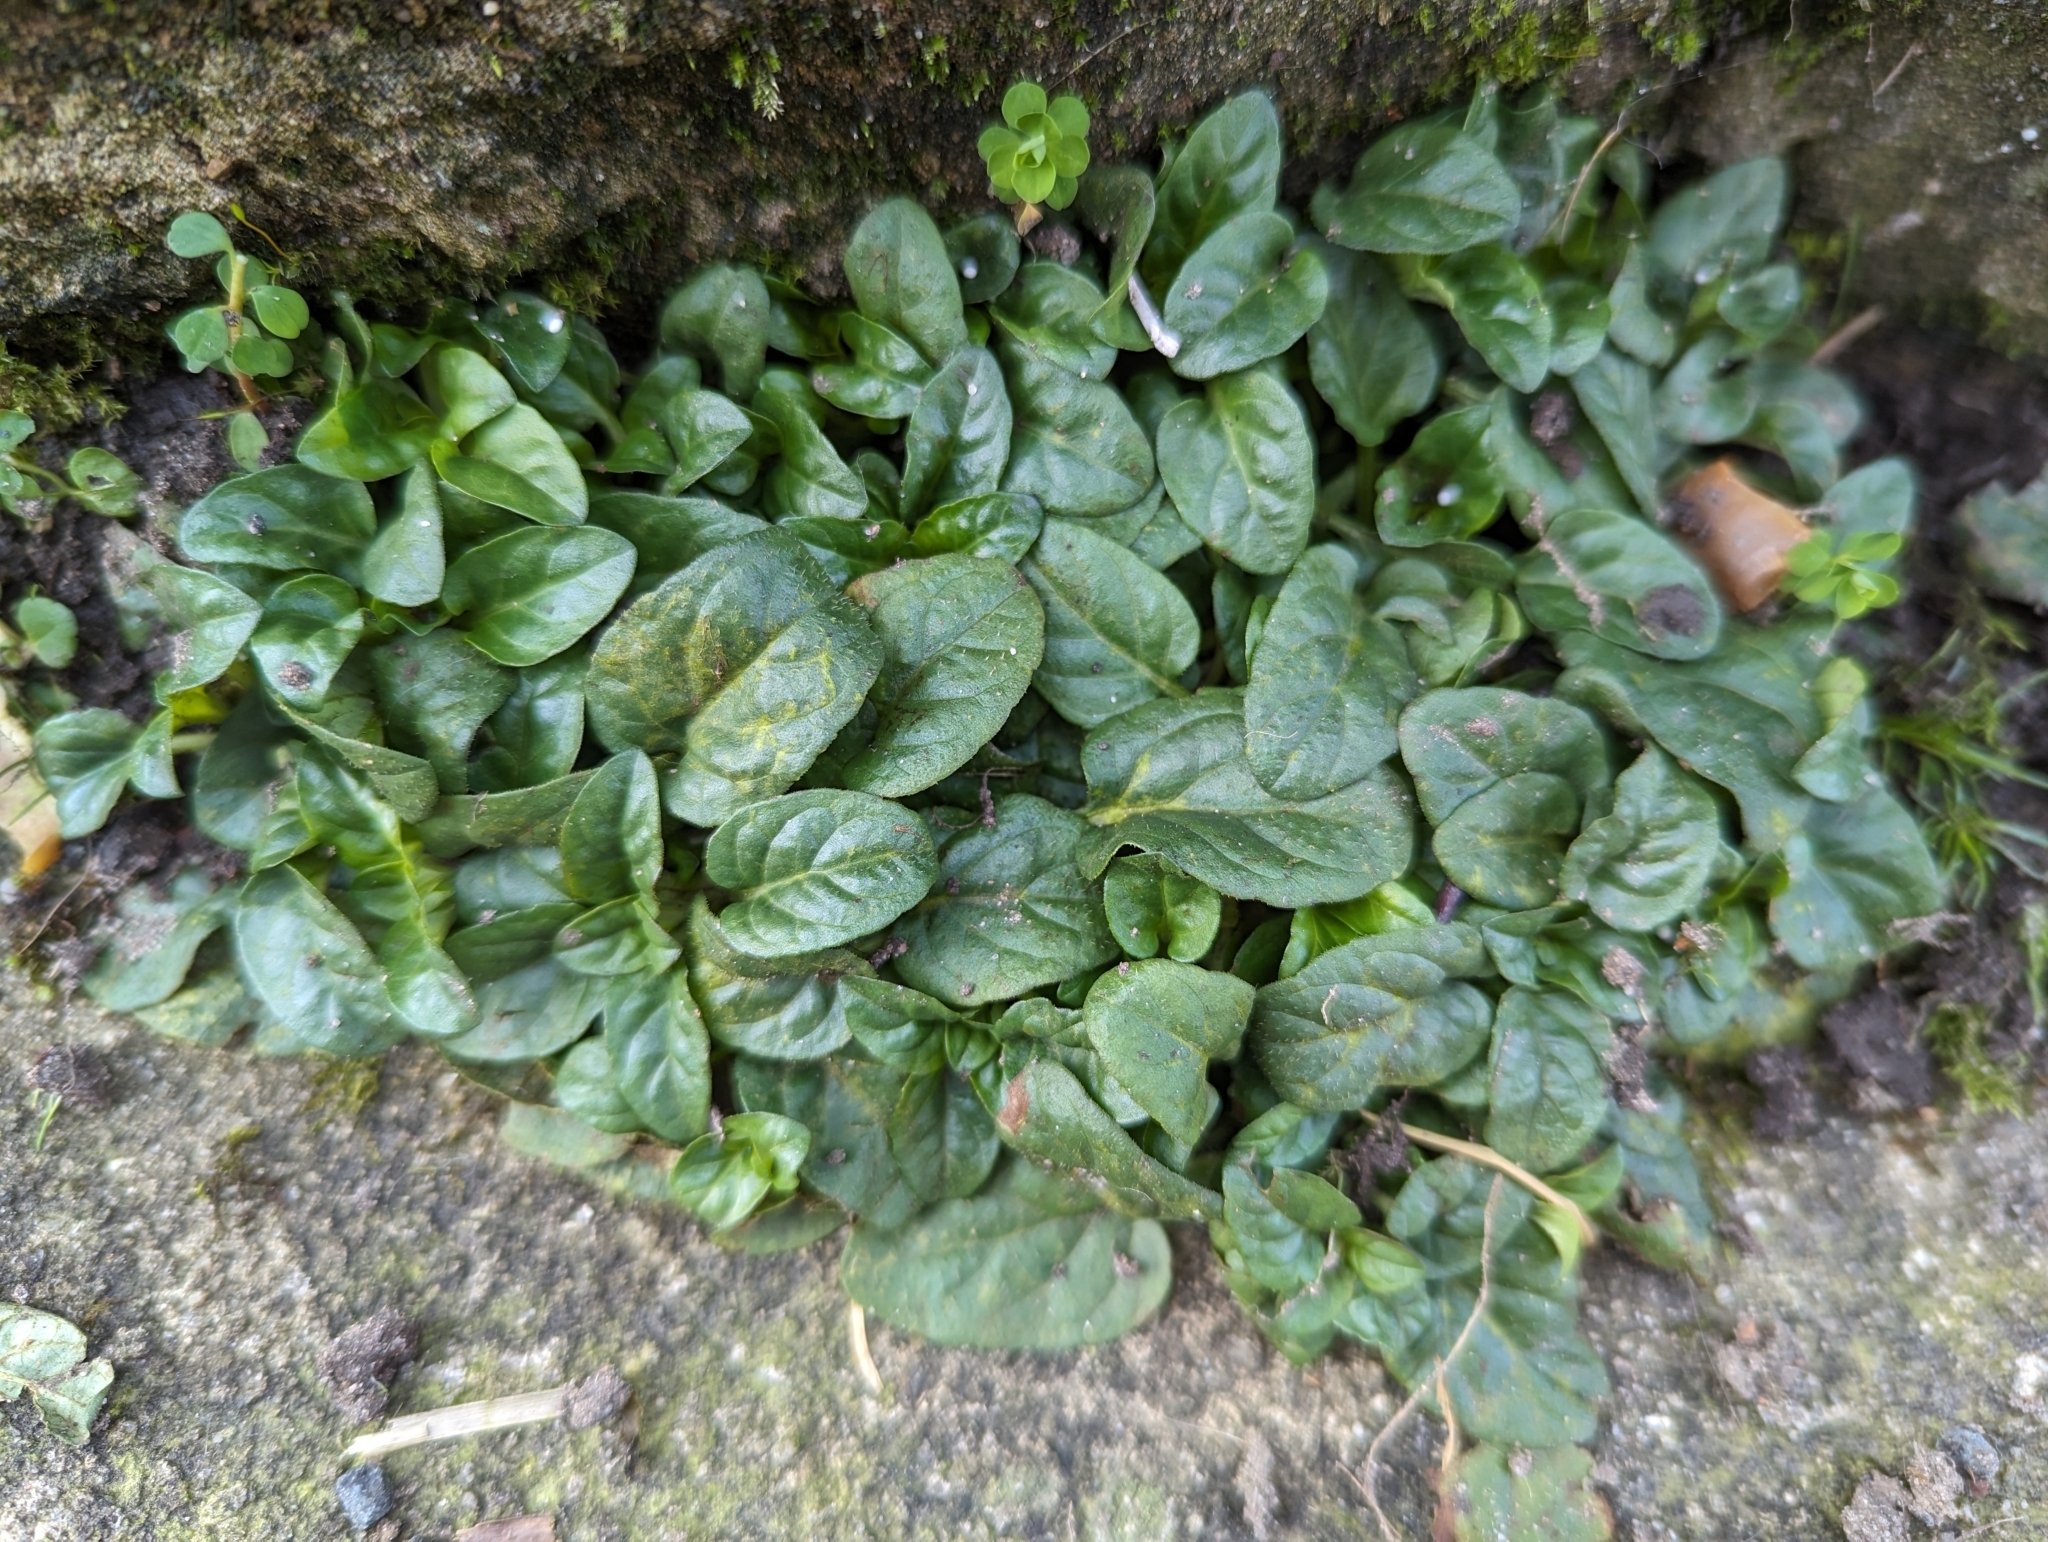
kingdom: Plantae
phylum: Tracheophyta
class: Magnoliopsida
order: Lamiales
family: Lamiaceae
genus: Prunella
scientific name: Prunella vulgaris
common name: Heal-all
